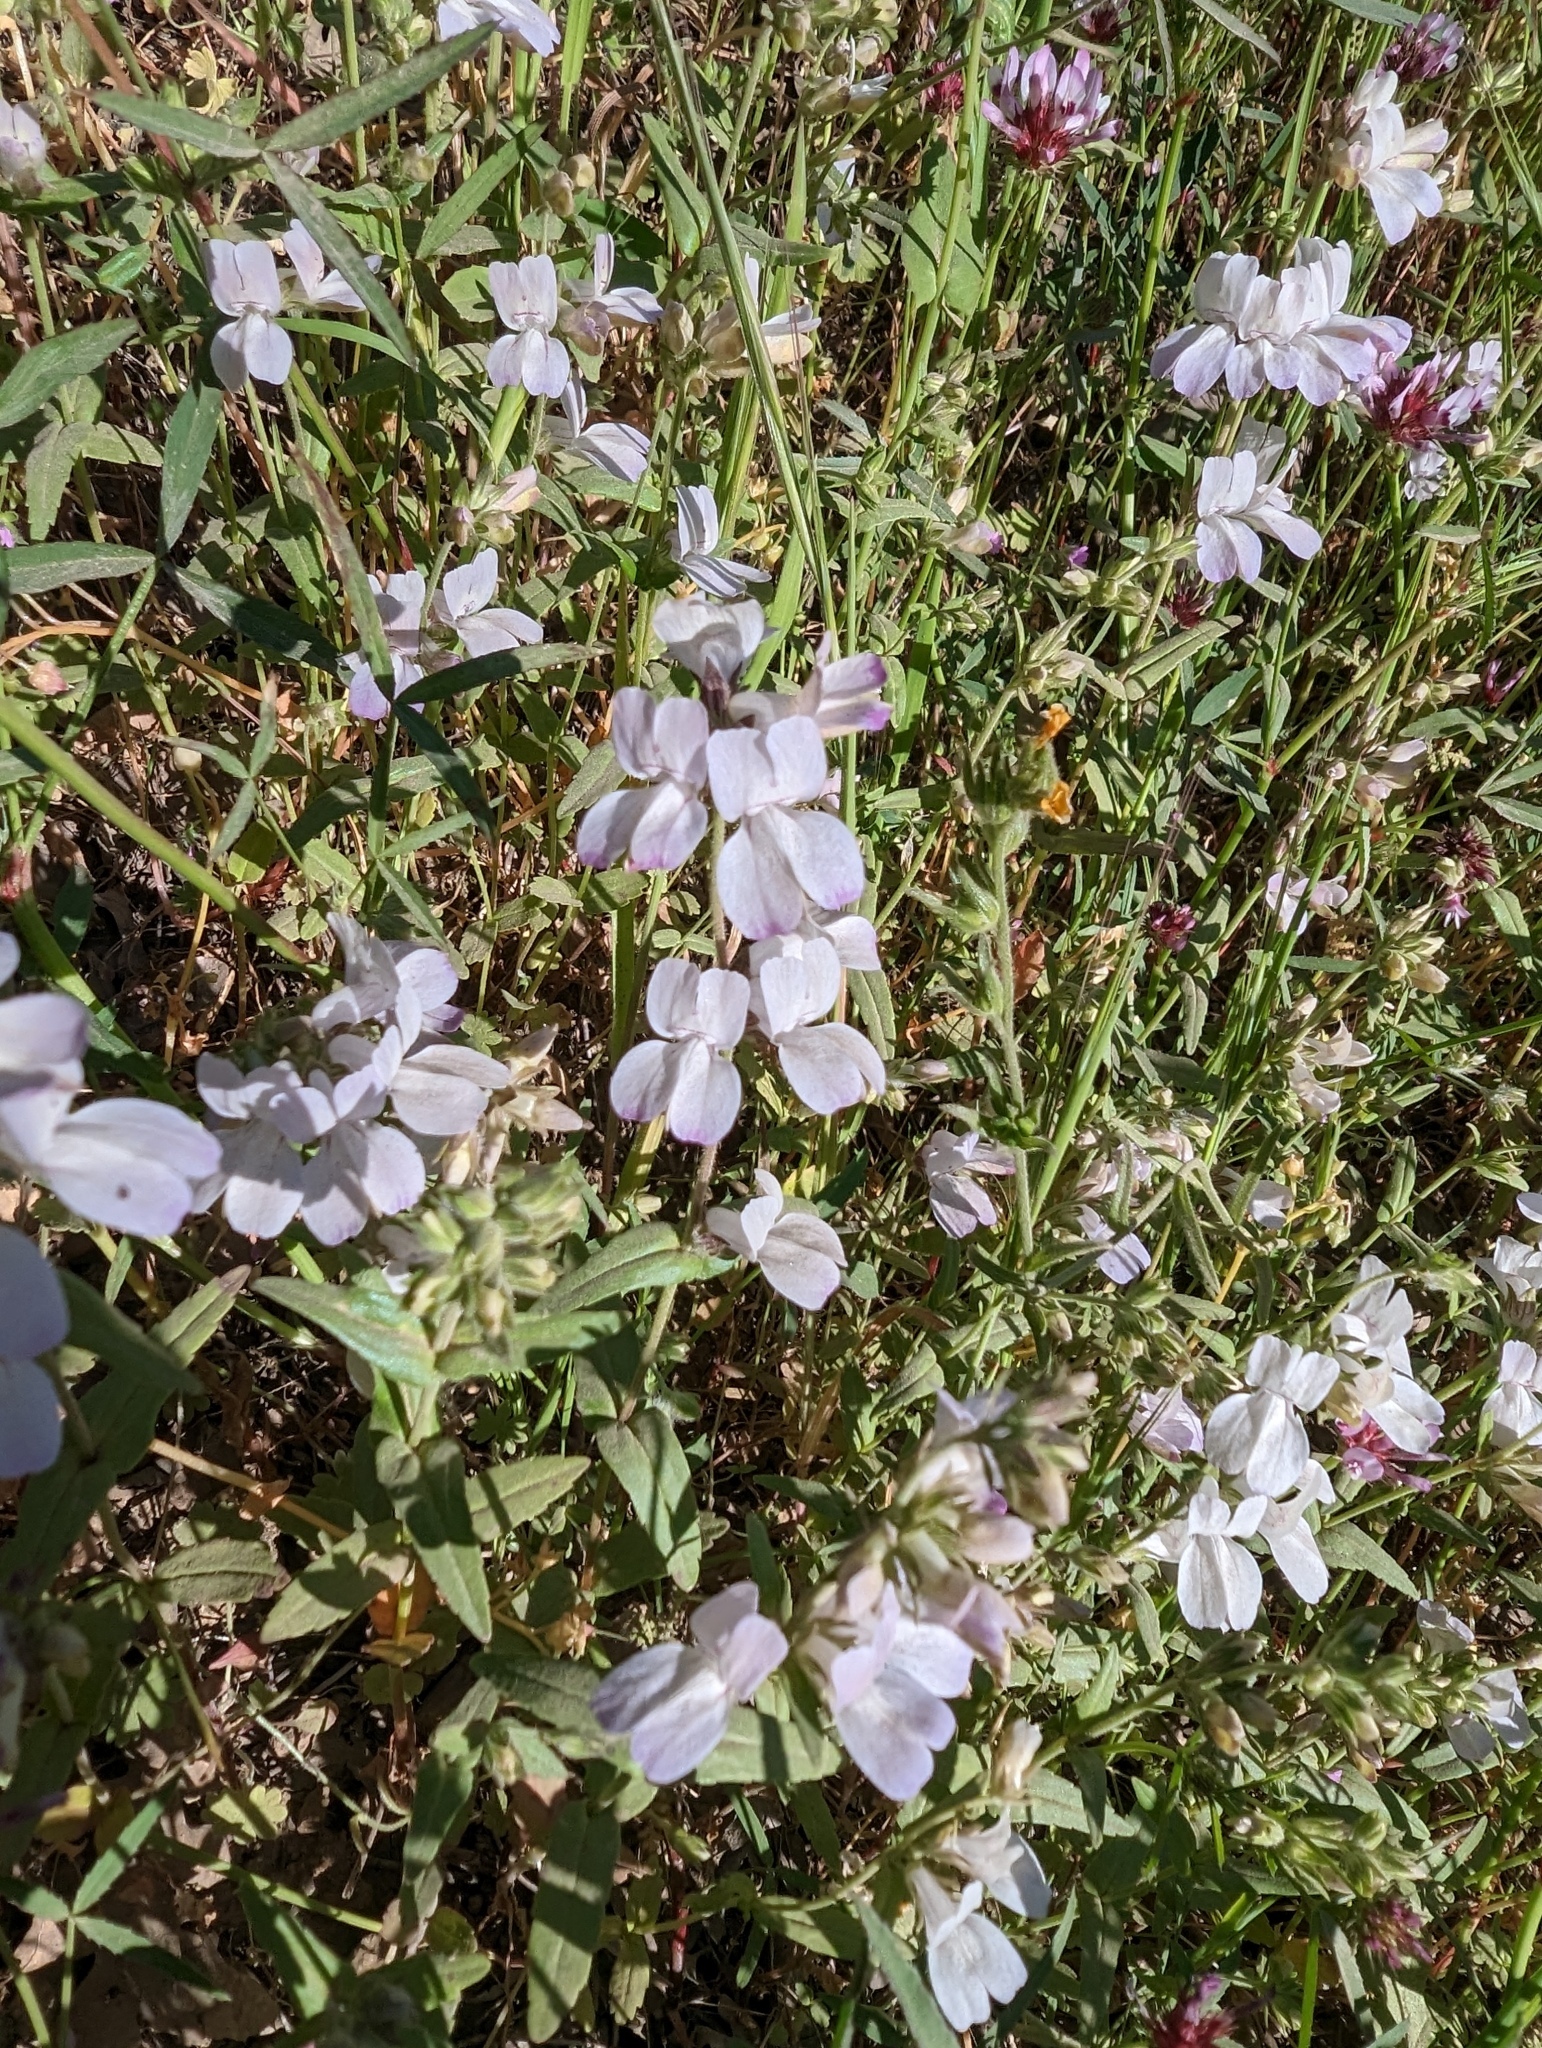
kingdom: Plantae
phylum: Tracheophyta
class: Magnoliopsida
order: Lamiales
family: Plantaginaceae
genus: Collinsia
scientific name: Collinsia heterophylla
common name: Chinese-houses
